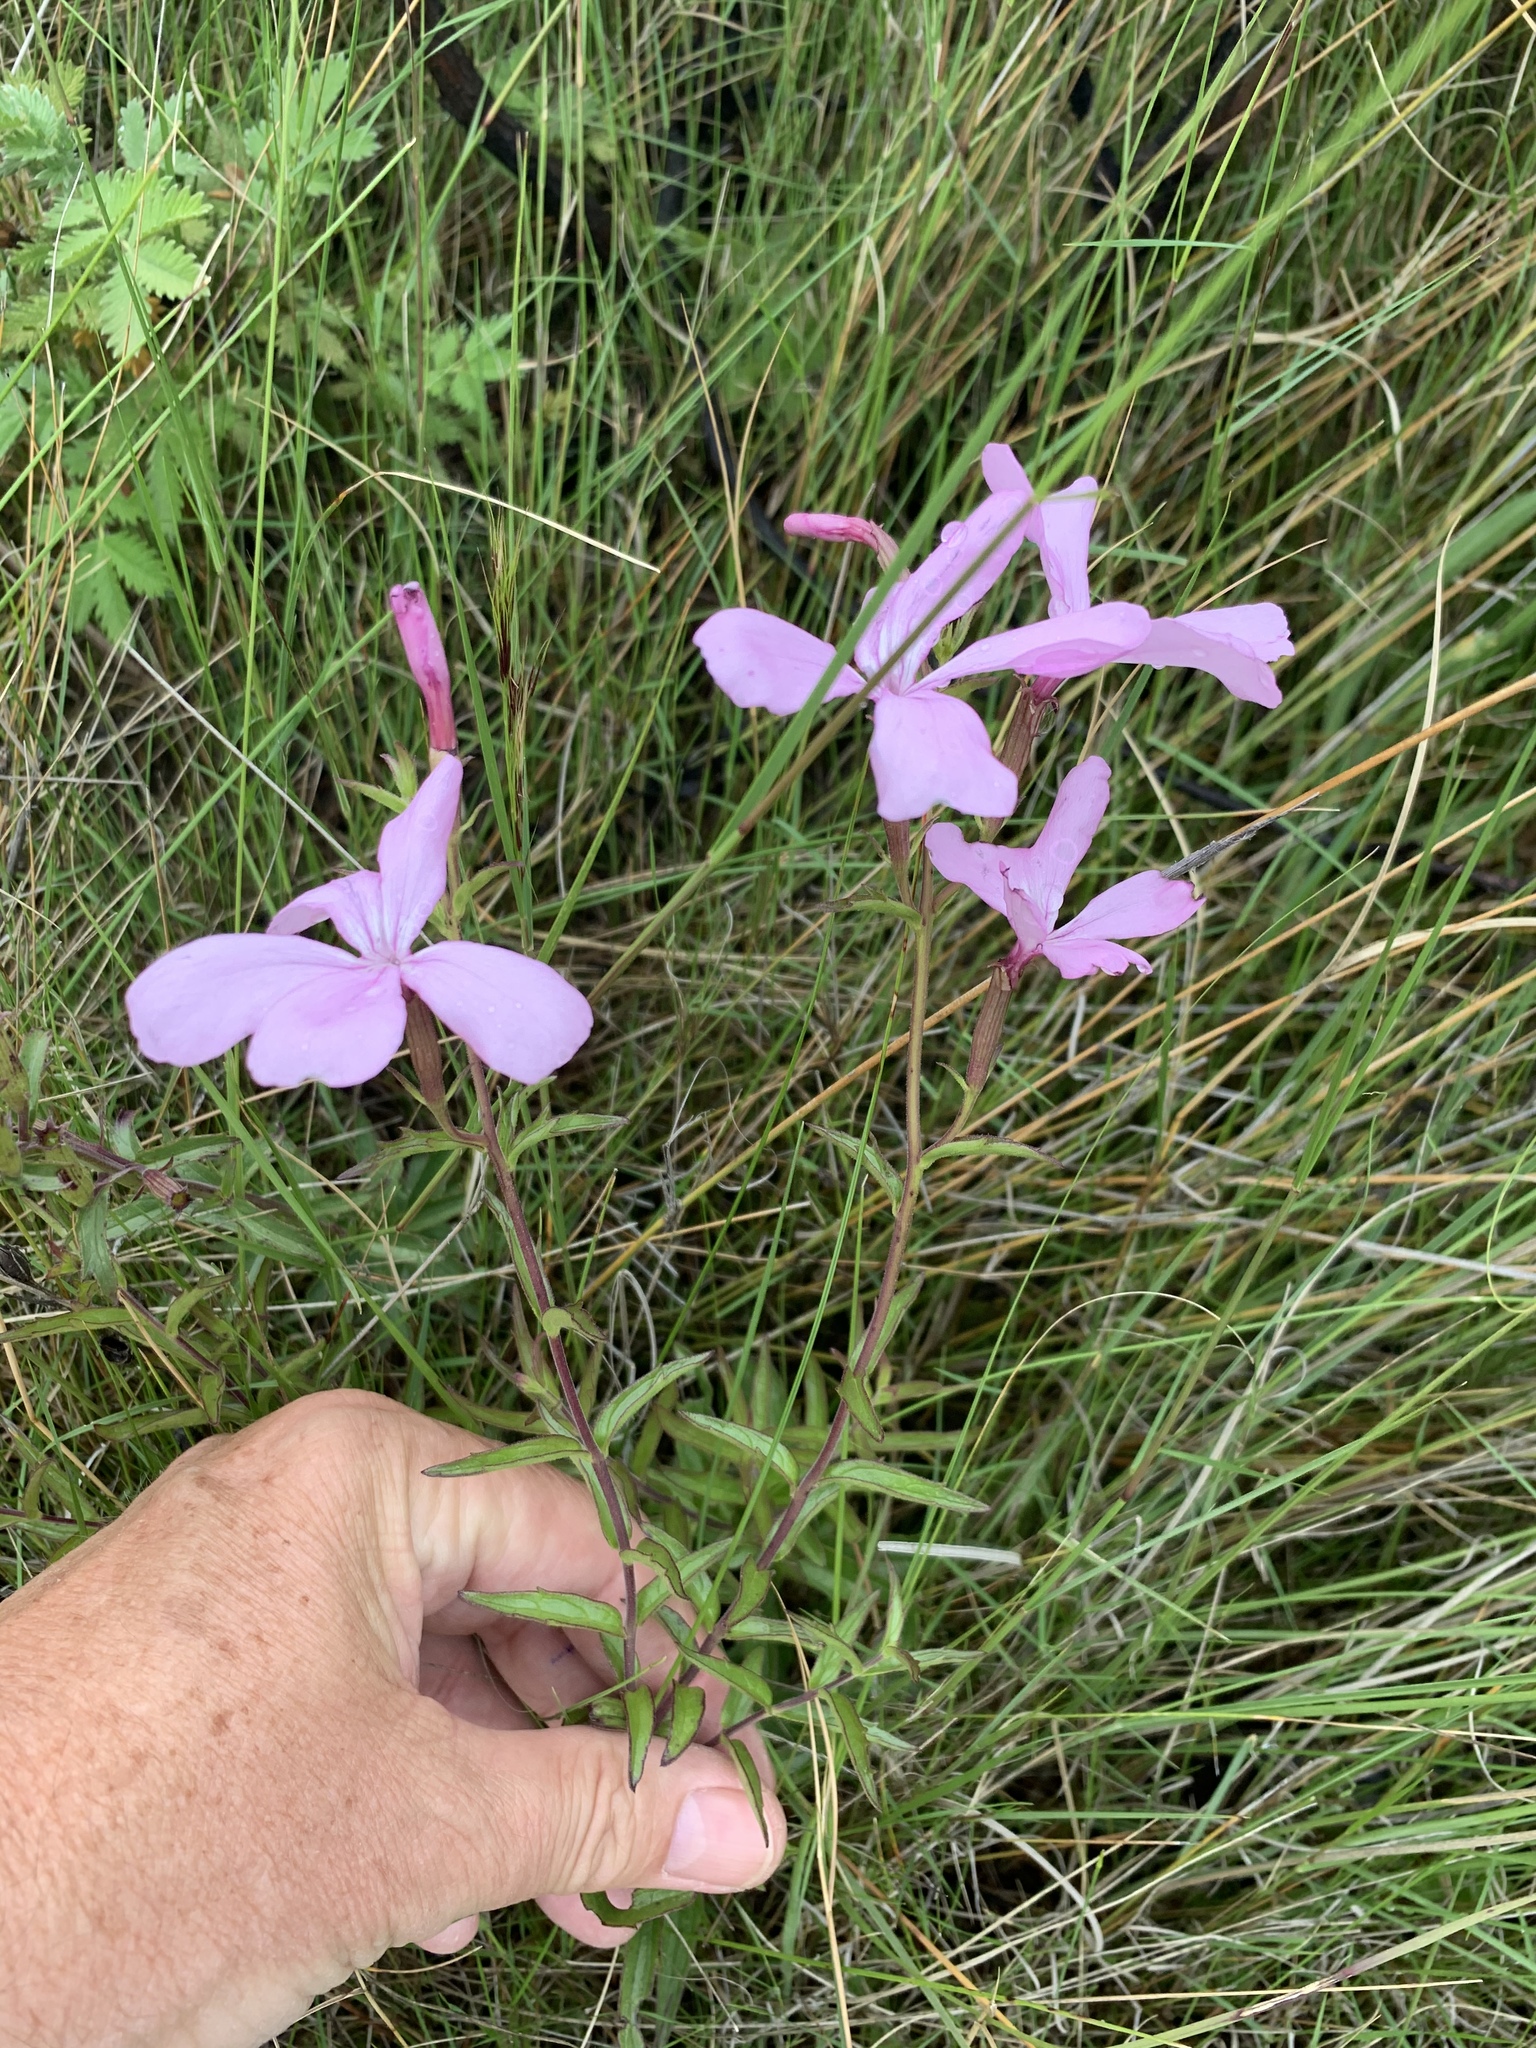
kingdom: Plantae
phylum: Tracheophyta
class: Magnoliopsida
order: Lamiales
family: Orobanchaceae
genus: Cycnium
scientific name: Cycnium racemosum
